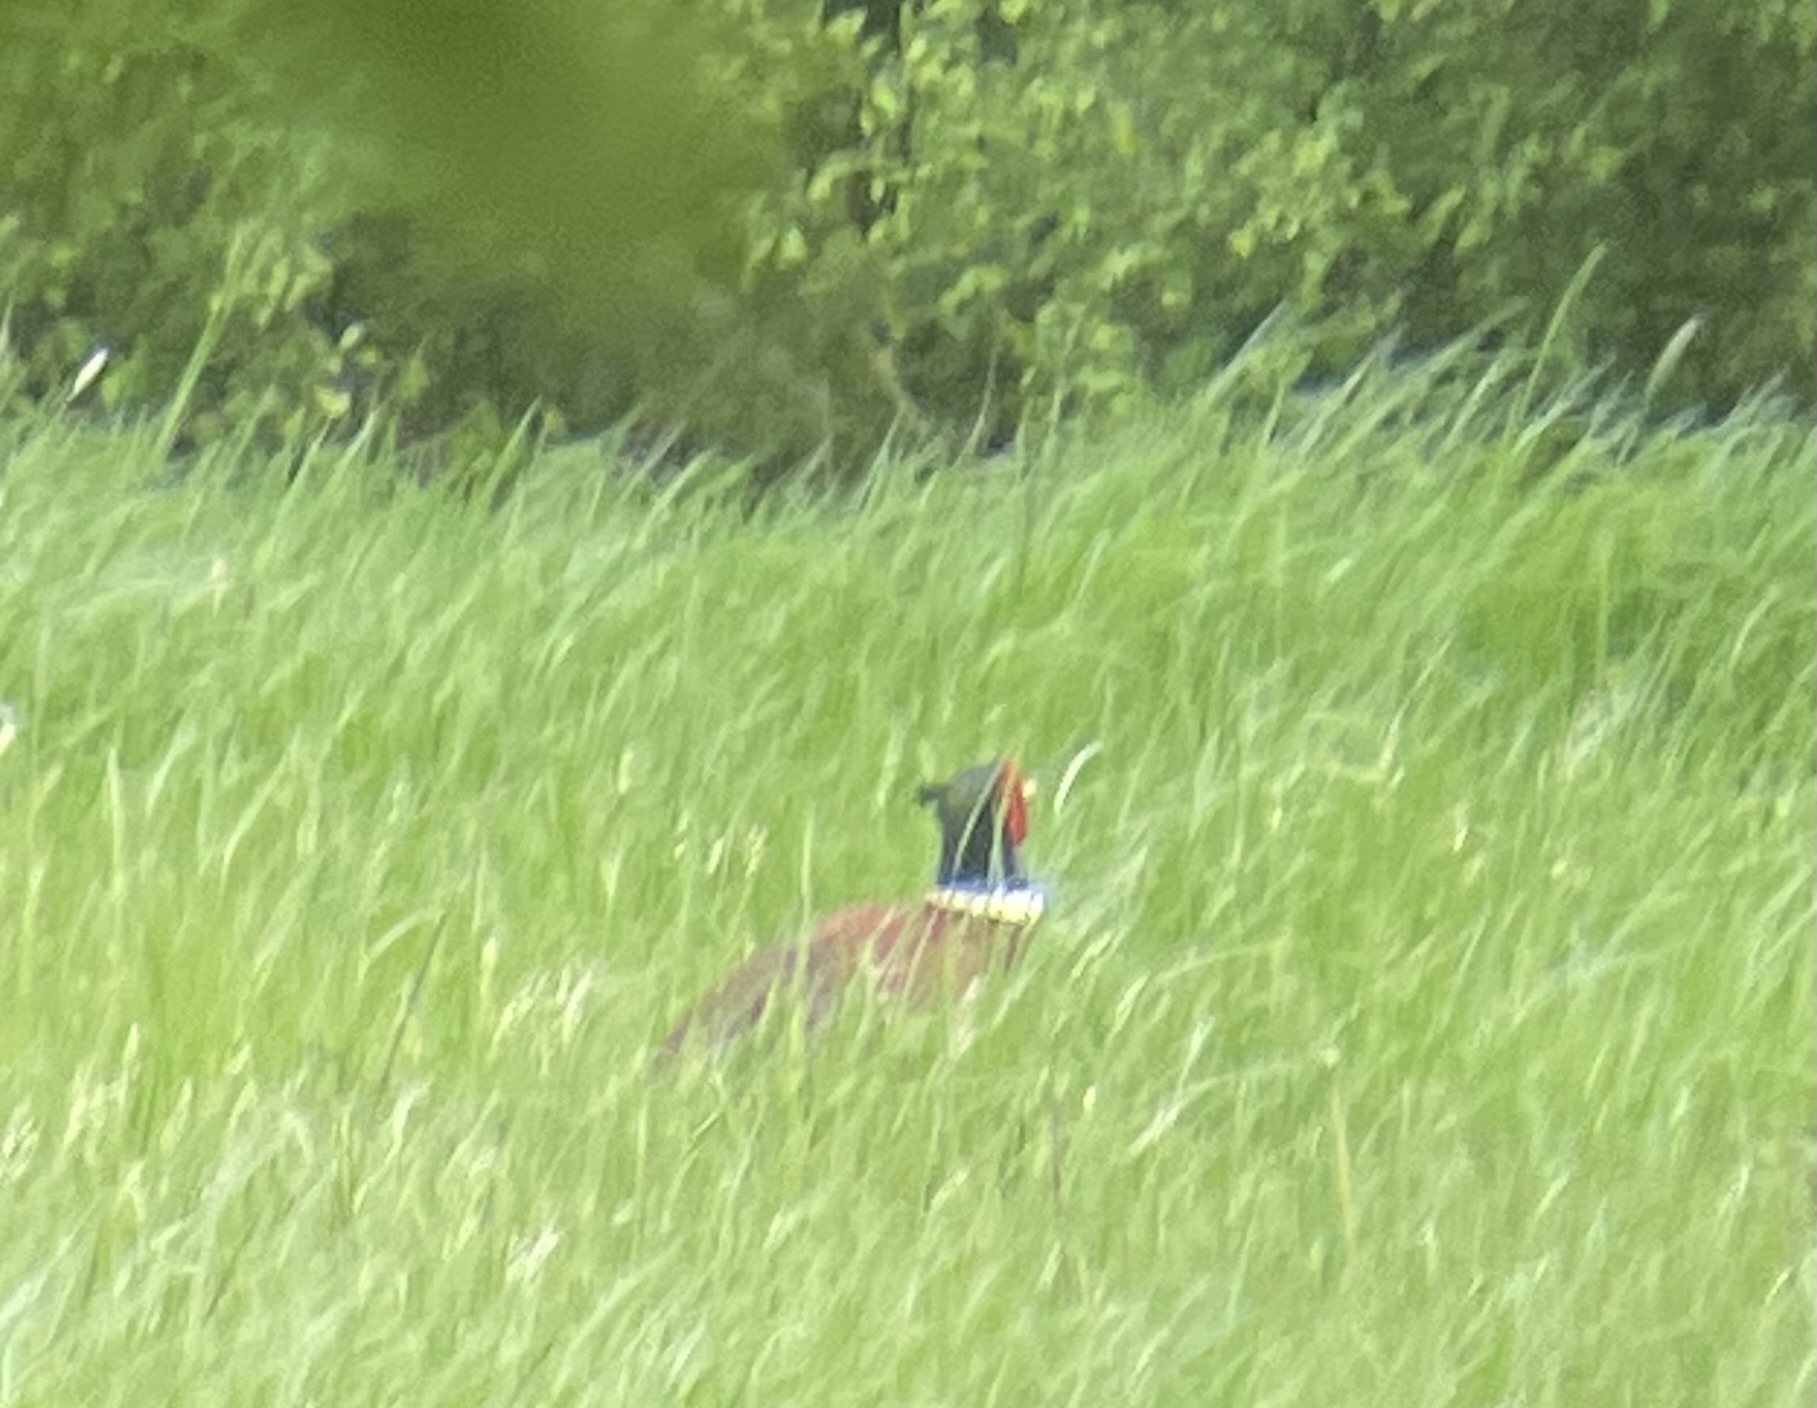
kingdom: Animalia
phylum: Chordata
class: Aves
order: Galliformes
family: Phasianidae
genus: Phasianus
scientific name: Phasianus colchicus
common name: Common pheasant
